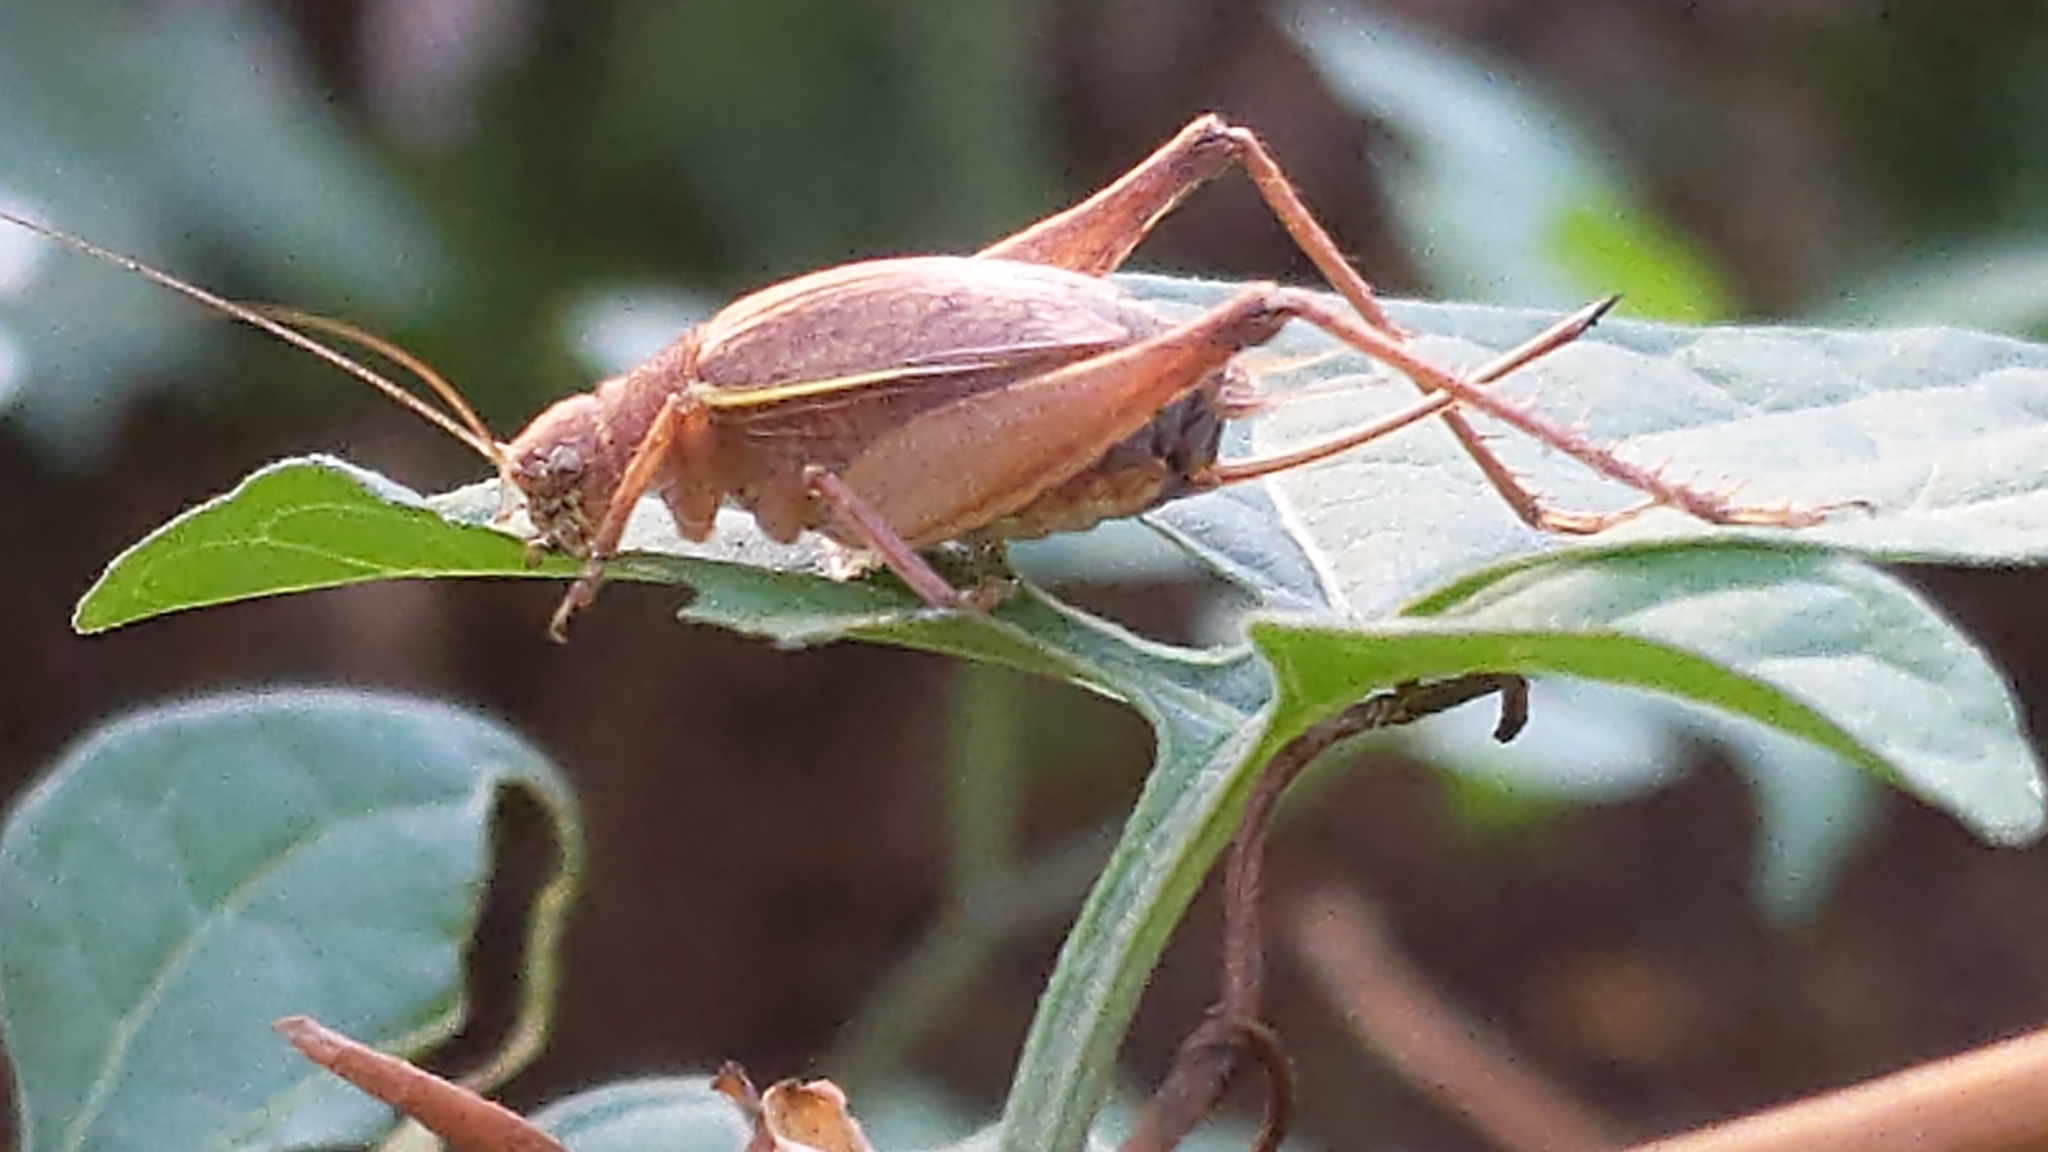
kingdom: Animalia
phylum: Arthropoda
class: Insecta
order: Orthoptera
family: Gryllidae
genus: Hapithus
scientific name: Hapithus agitator
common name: Restless bush cricket
